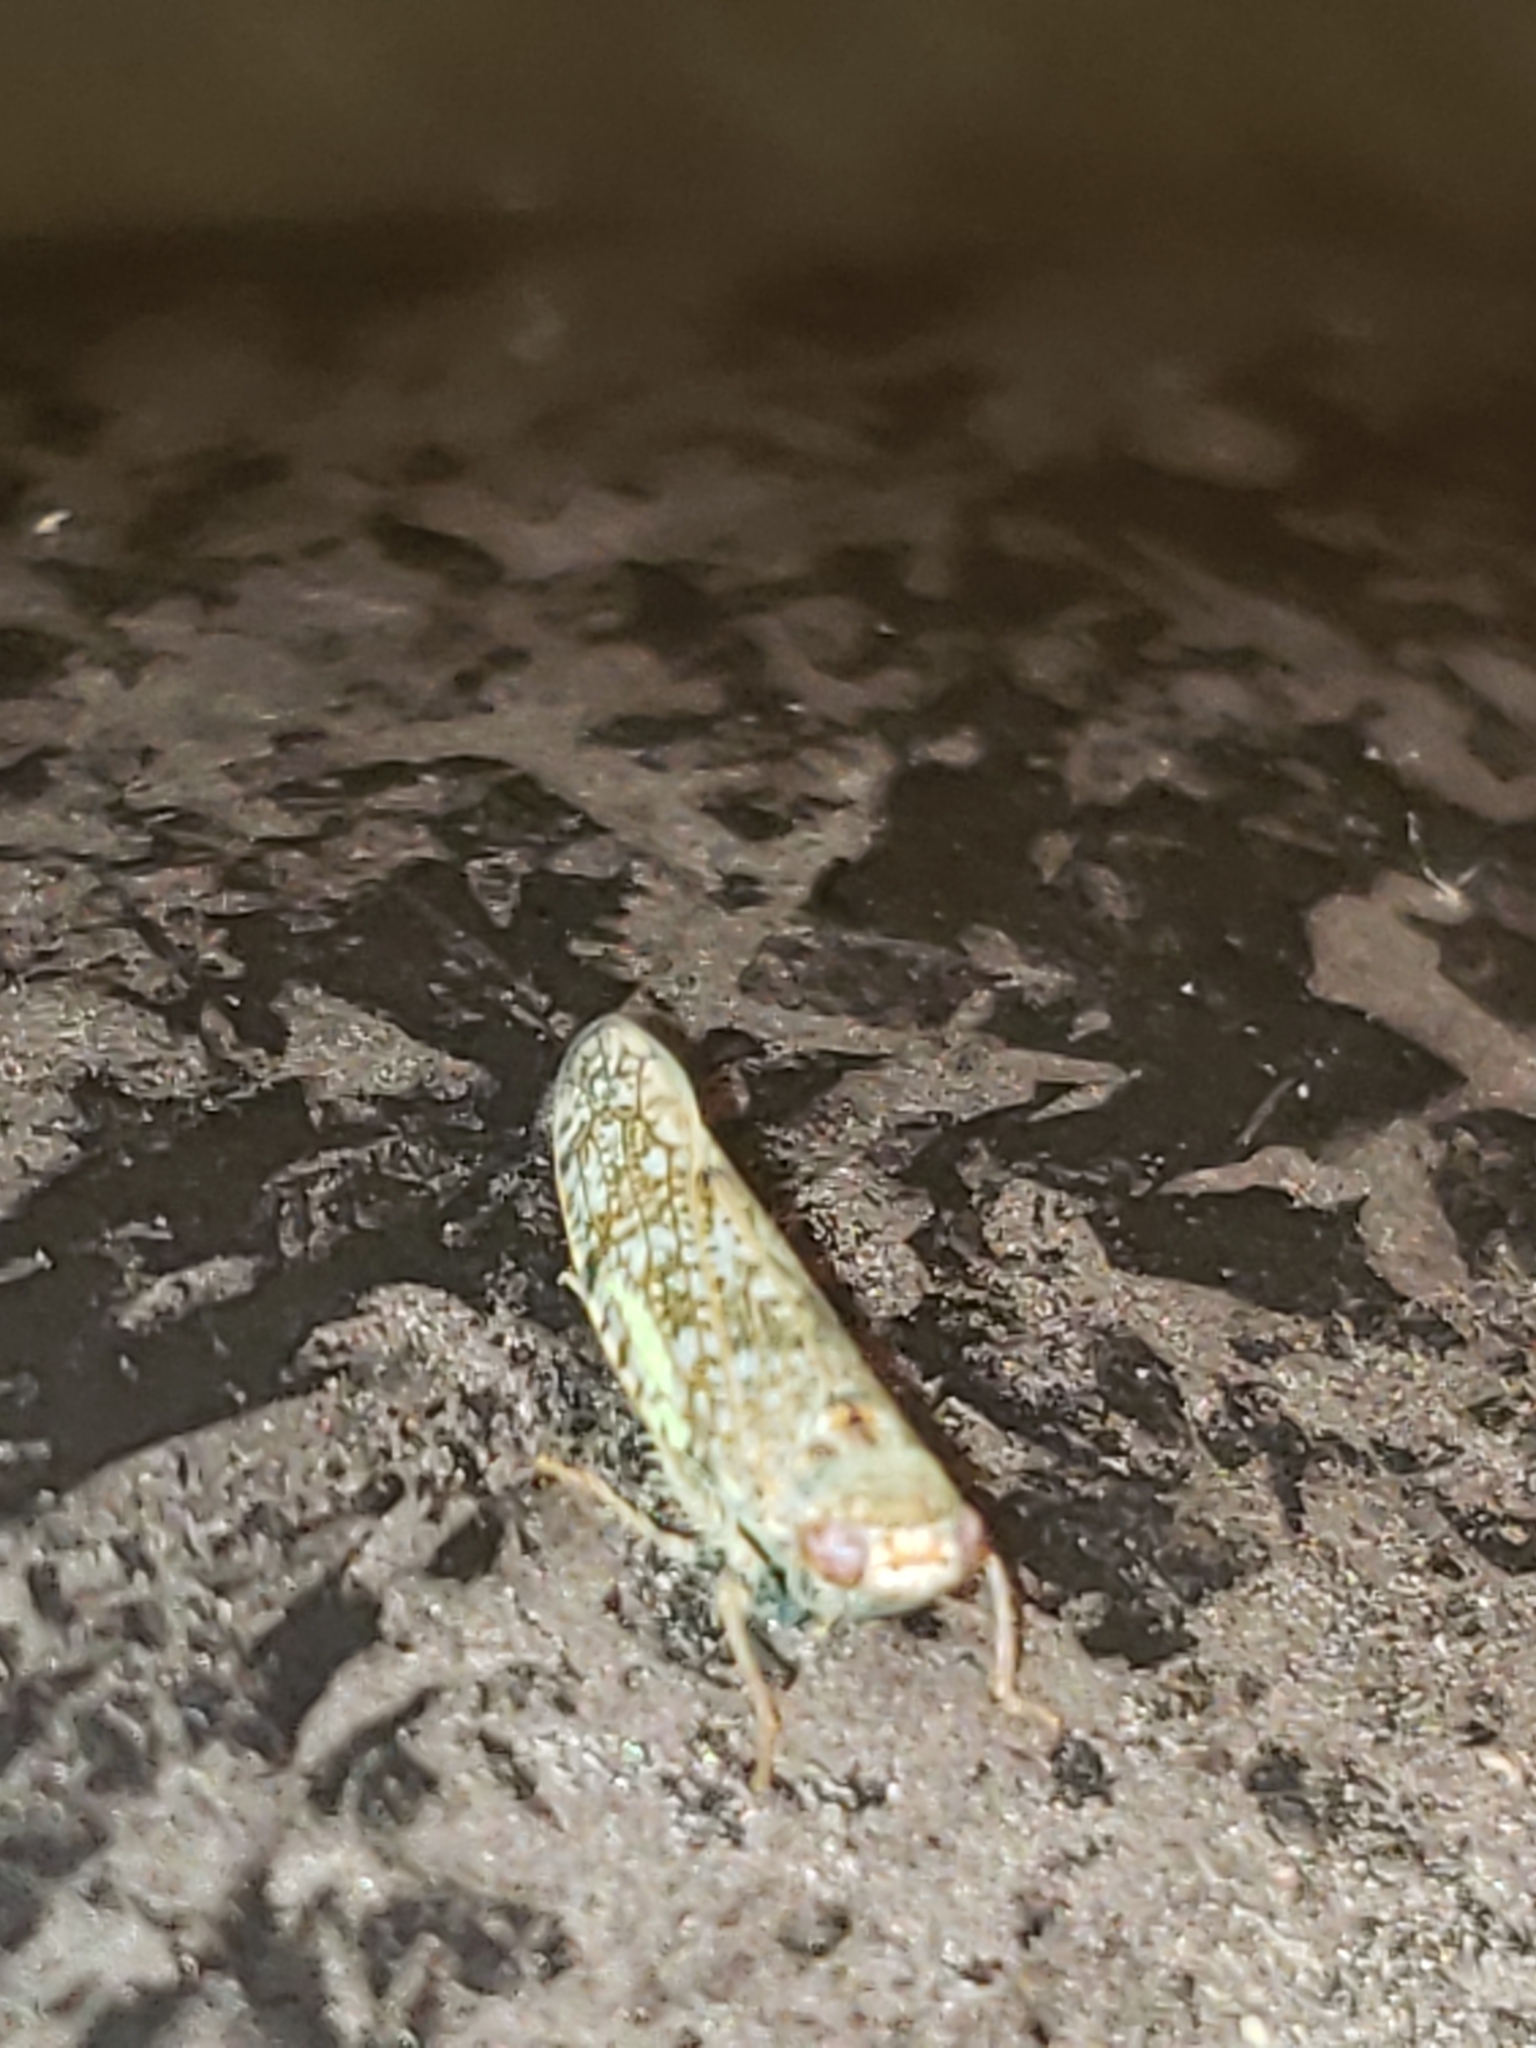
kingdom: Animalia
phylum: Arthropoda
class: Insecta
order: Hemiptera
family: Cicadellidae
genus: Orientus
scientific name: Orientus ishidae
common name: Japanese leafhopper
